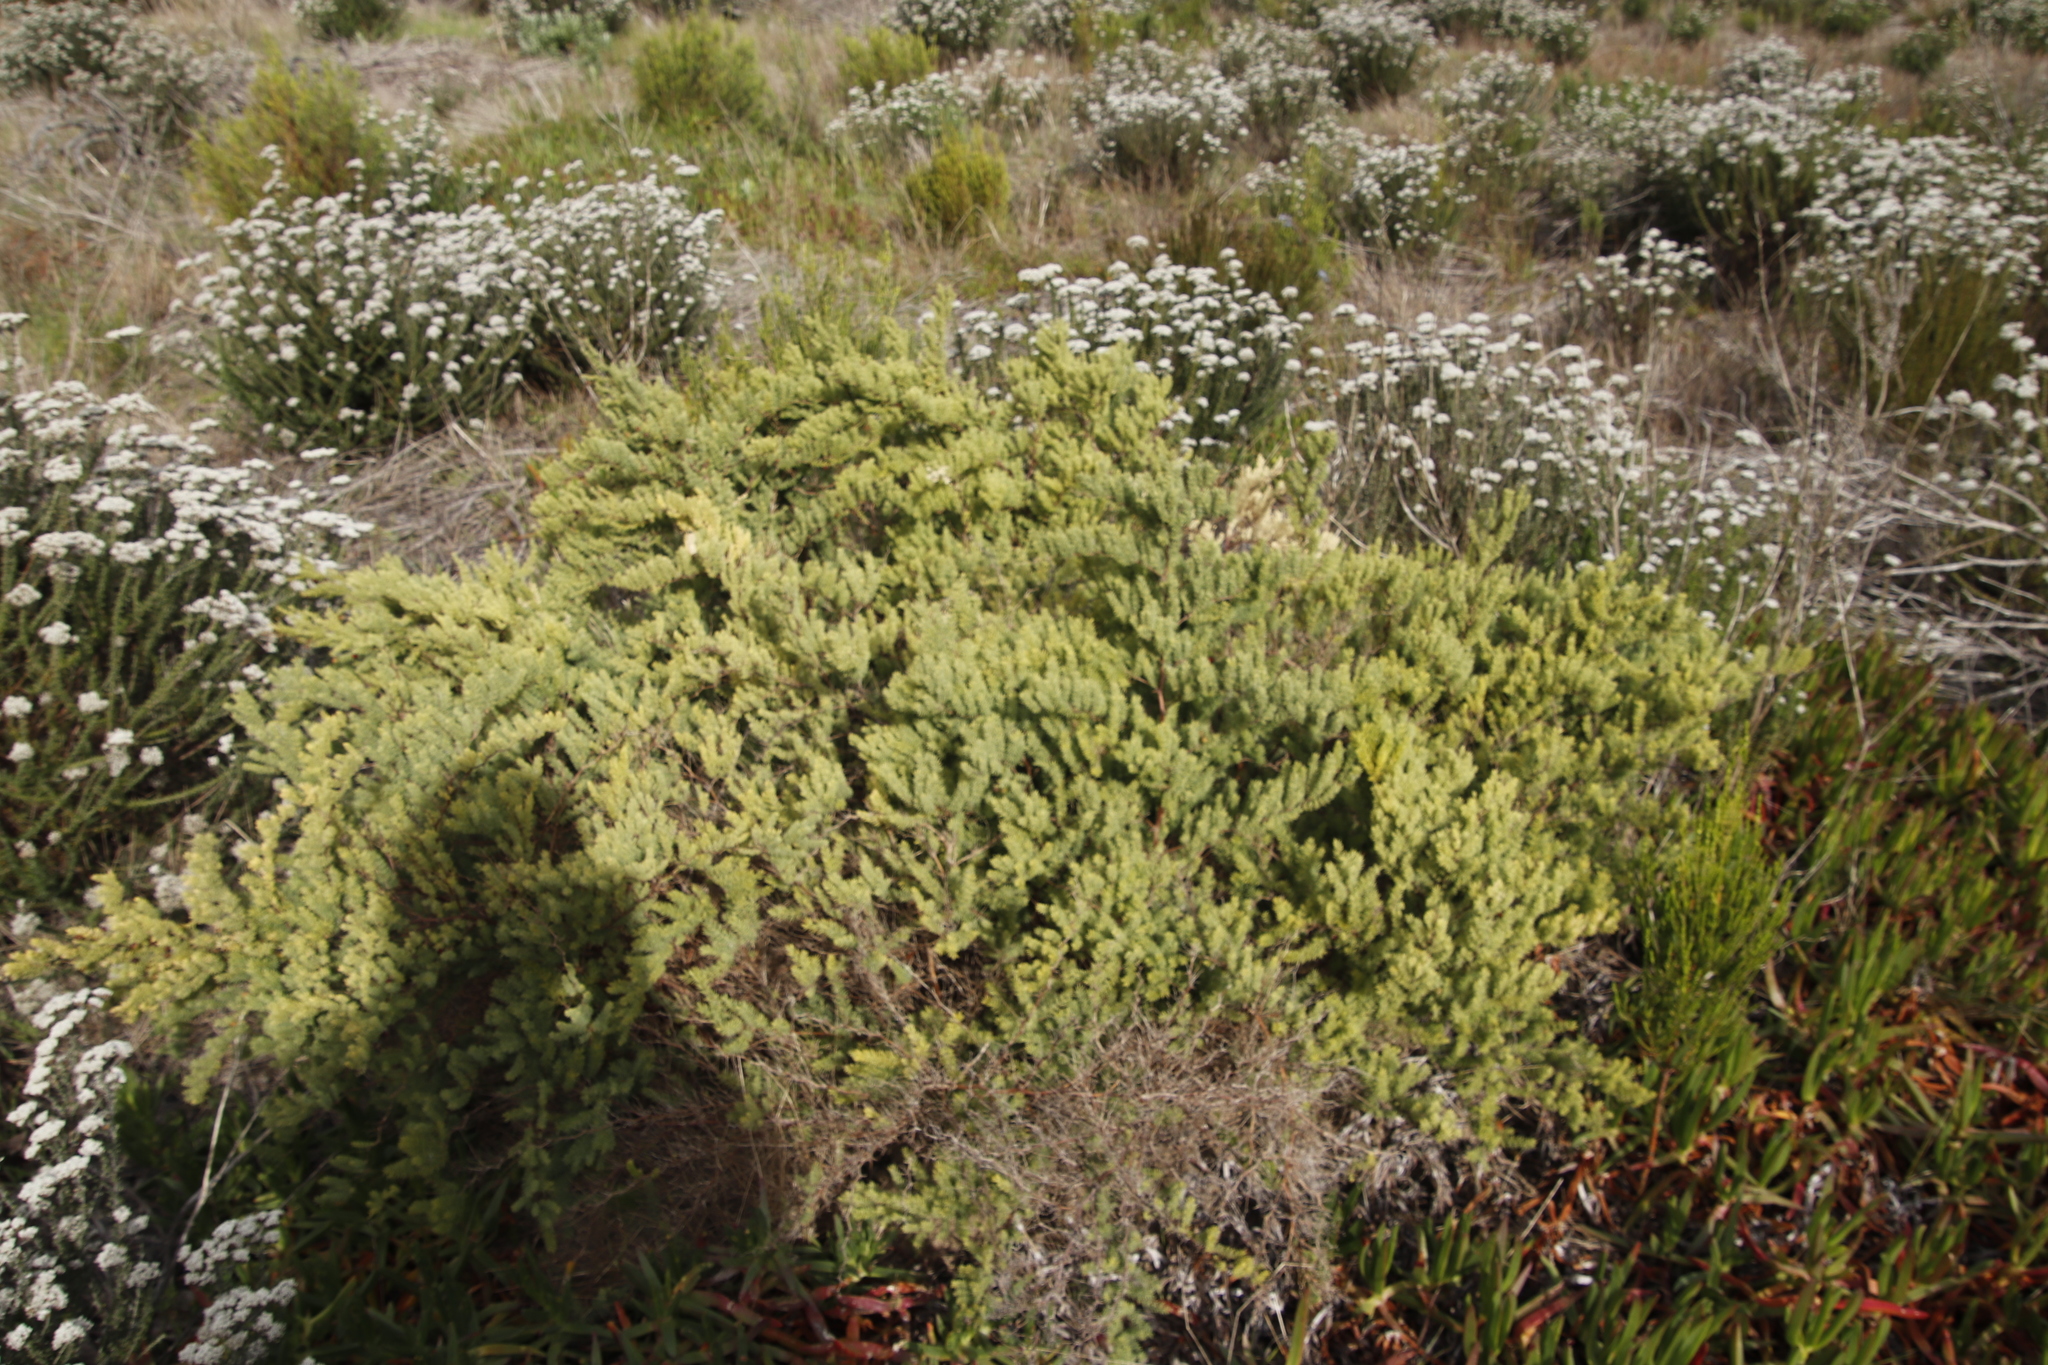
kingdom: Plantae
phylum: Tracheophyta
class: Liliopsida
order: Asparagales
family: Asparagaceae
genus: Asparagus
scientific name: Asparagus rubicundus
